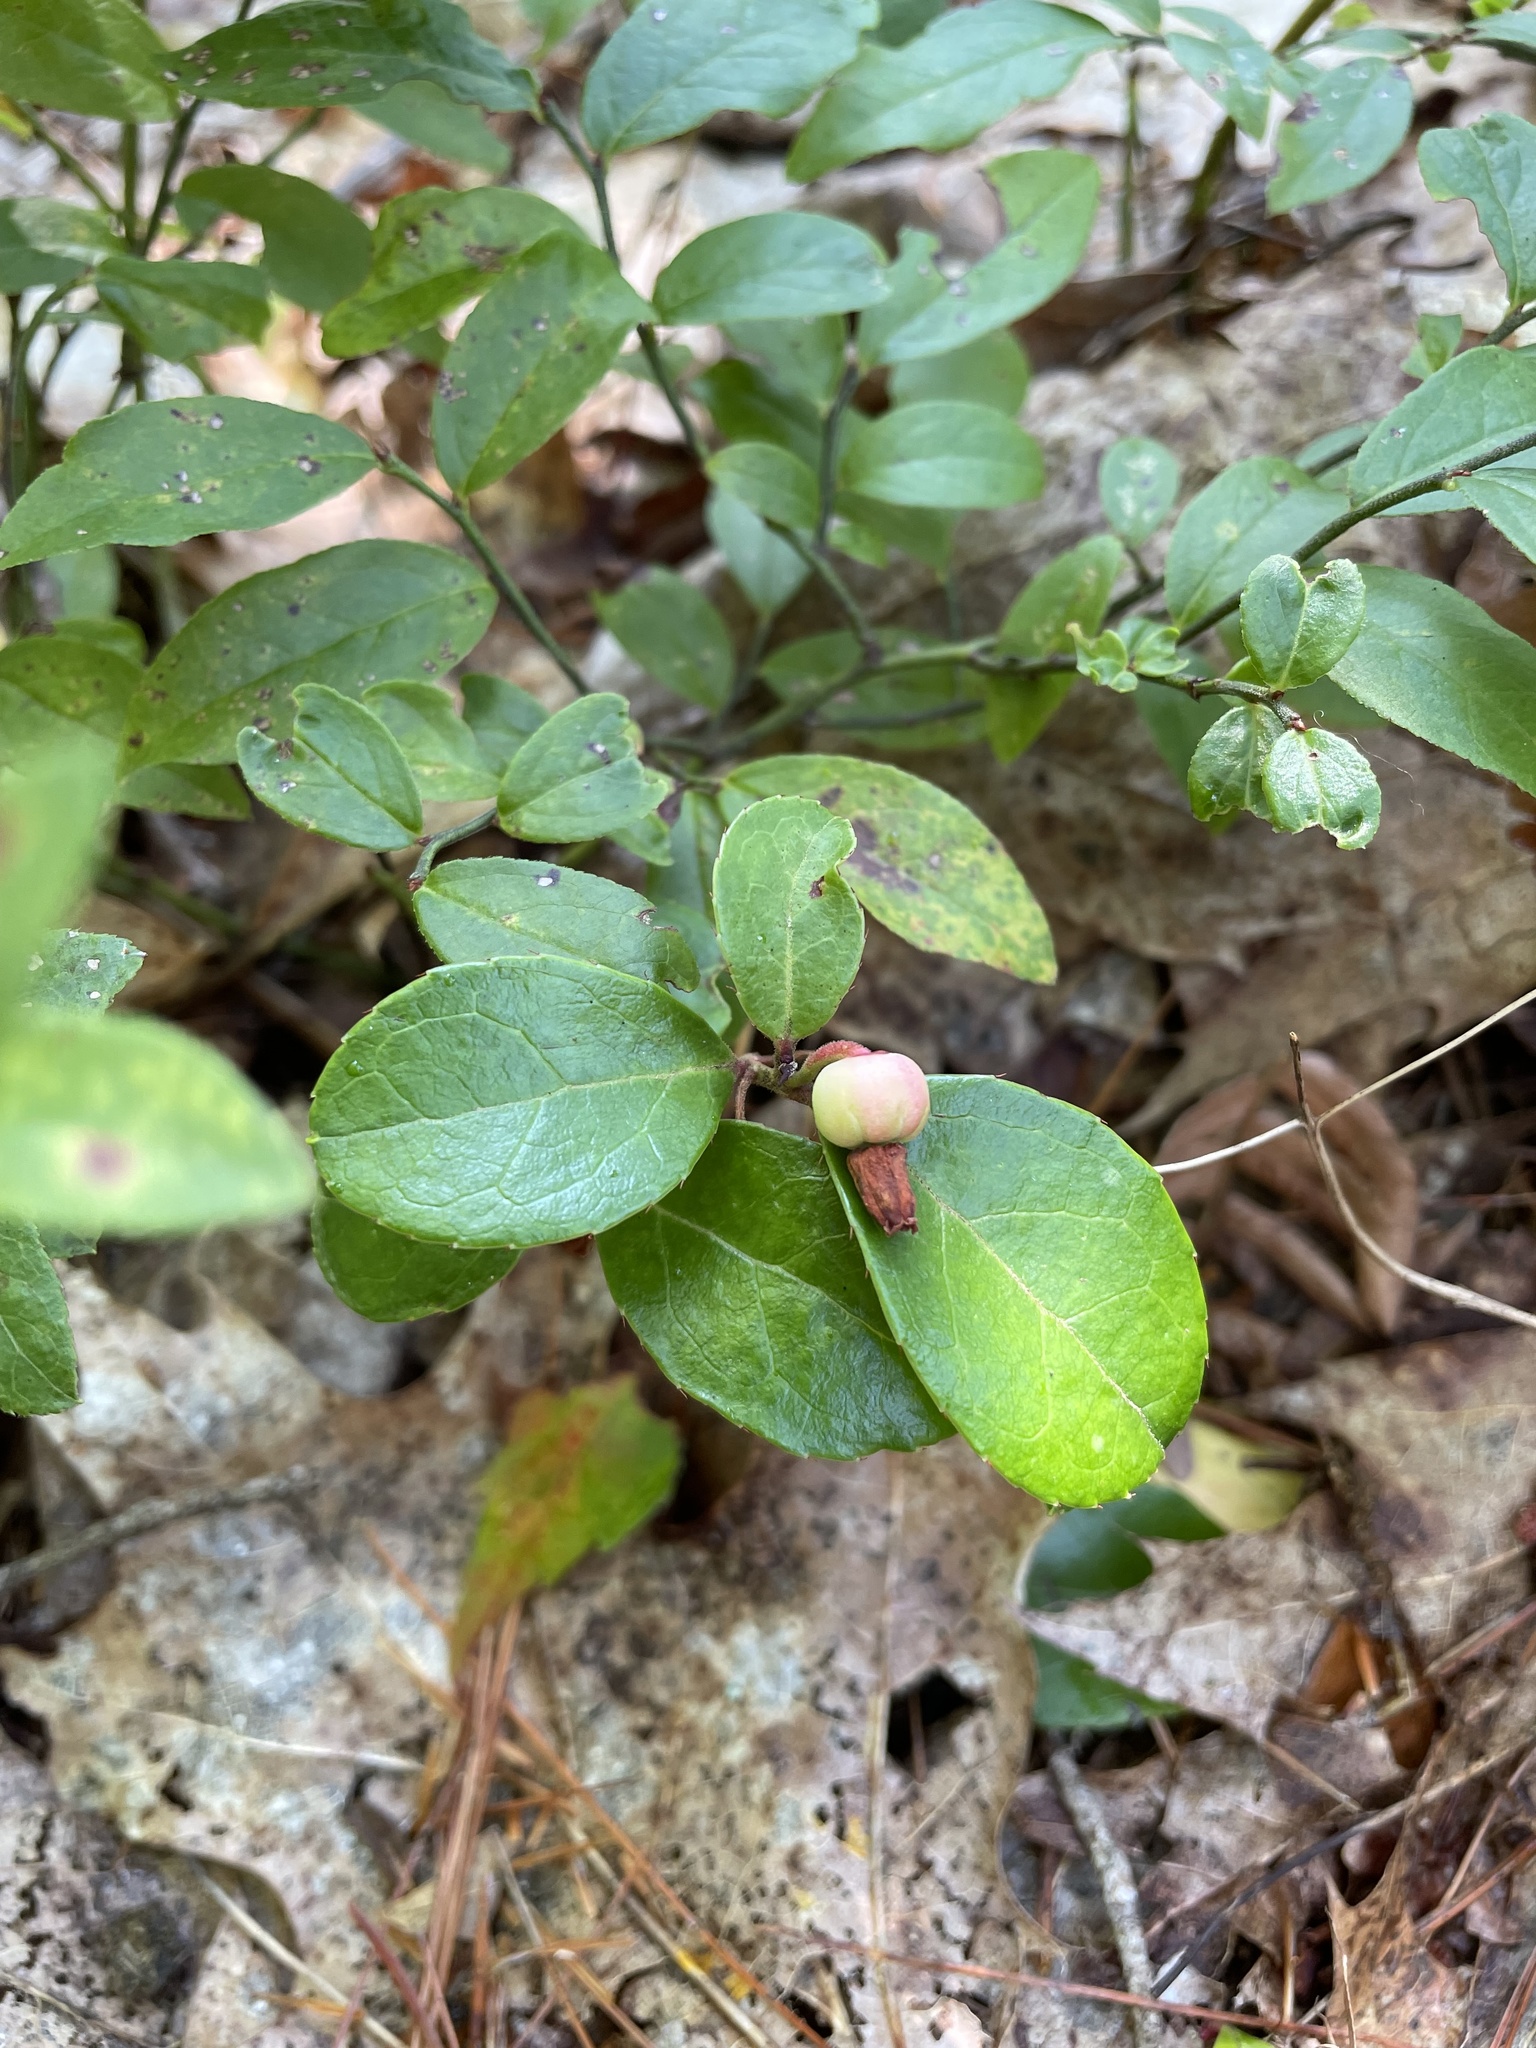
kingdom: Plantae
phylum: Tracheophyta
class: Magnoliopsida
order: Ericales
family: Ericaceae
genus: Gaultheria
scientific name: Gaultheria procumbens
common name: Checkerberry
